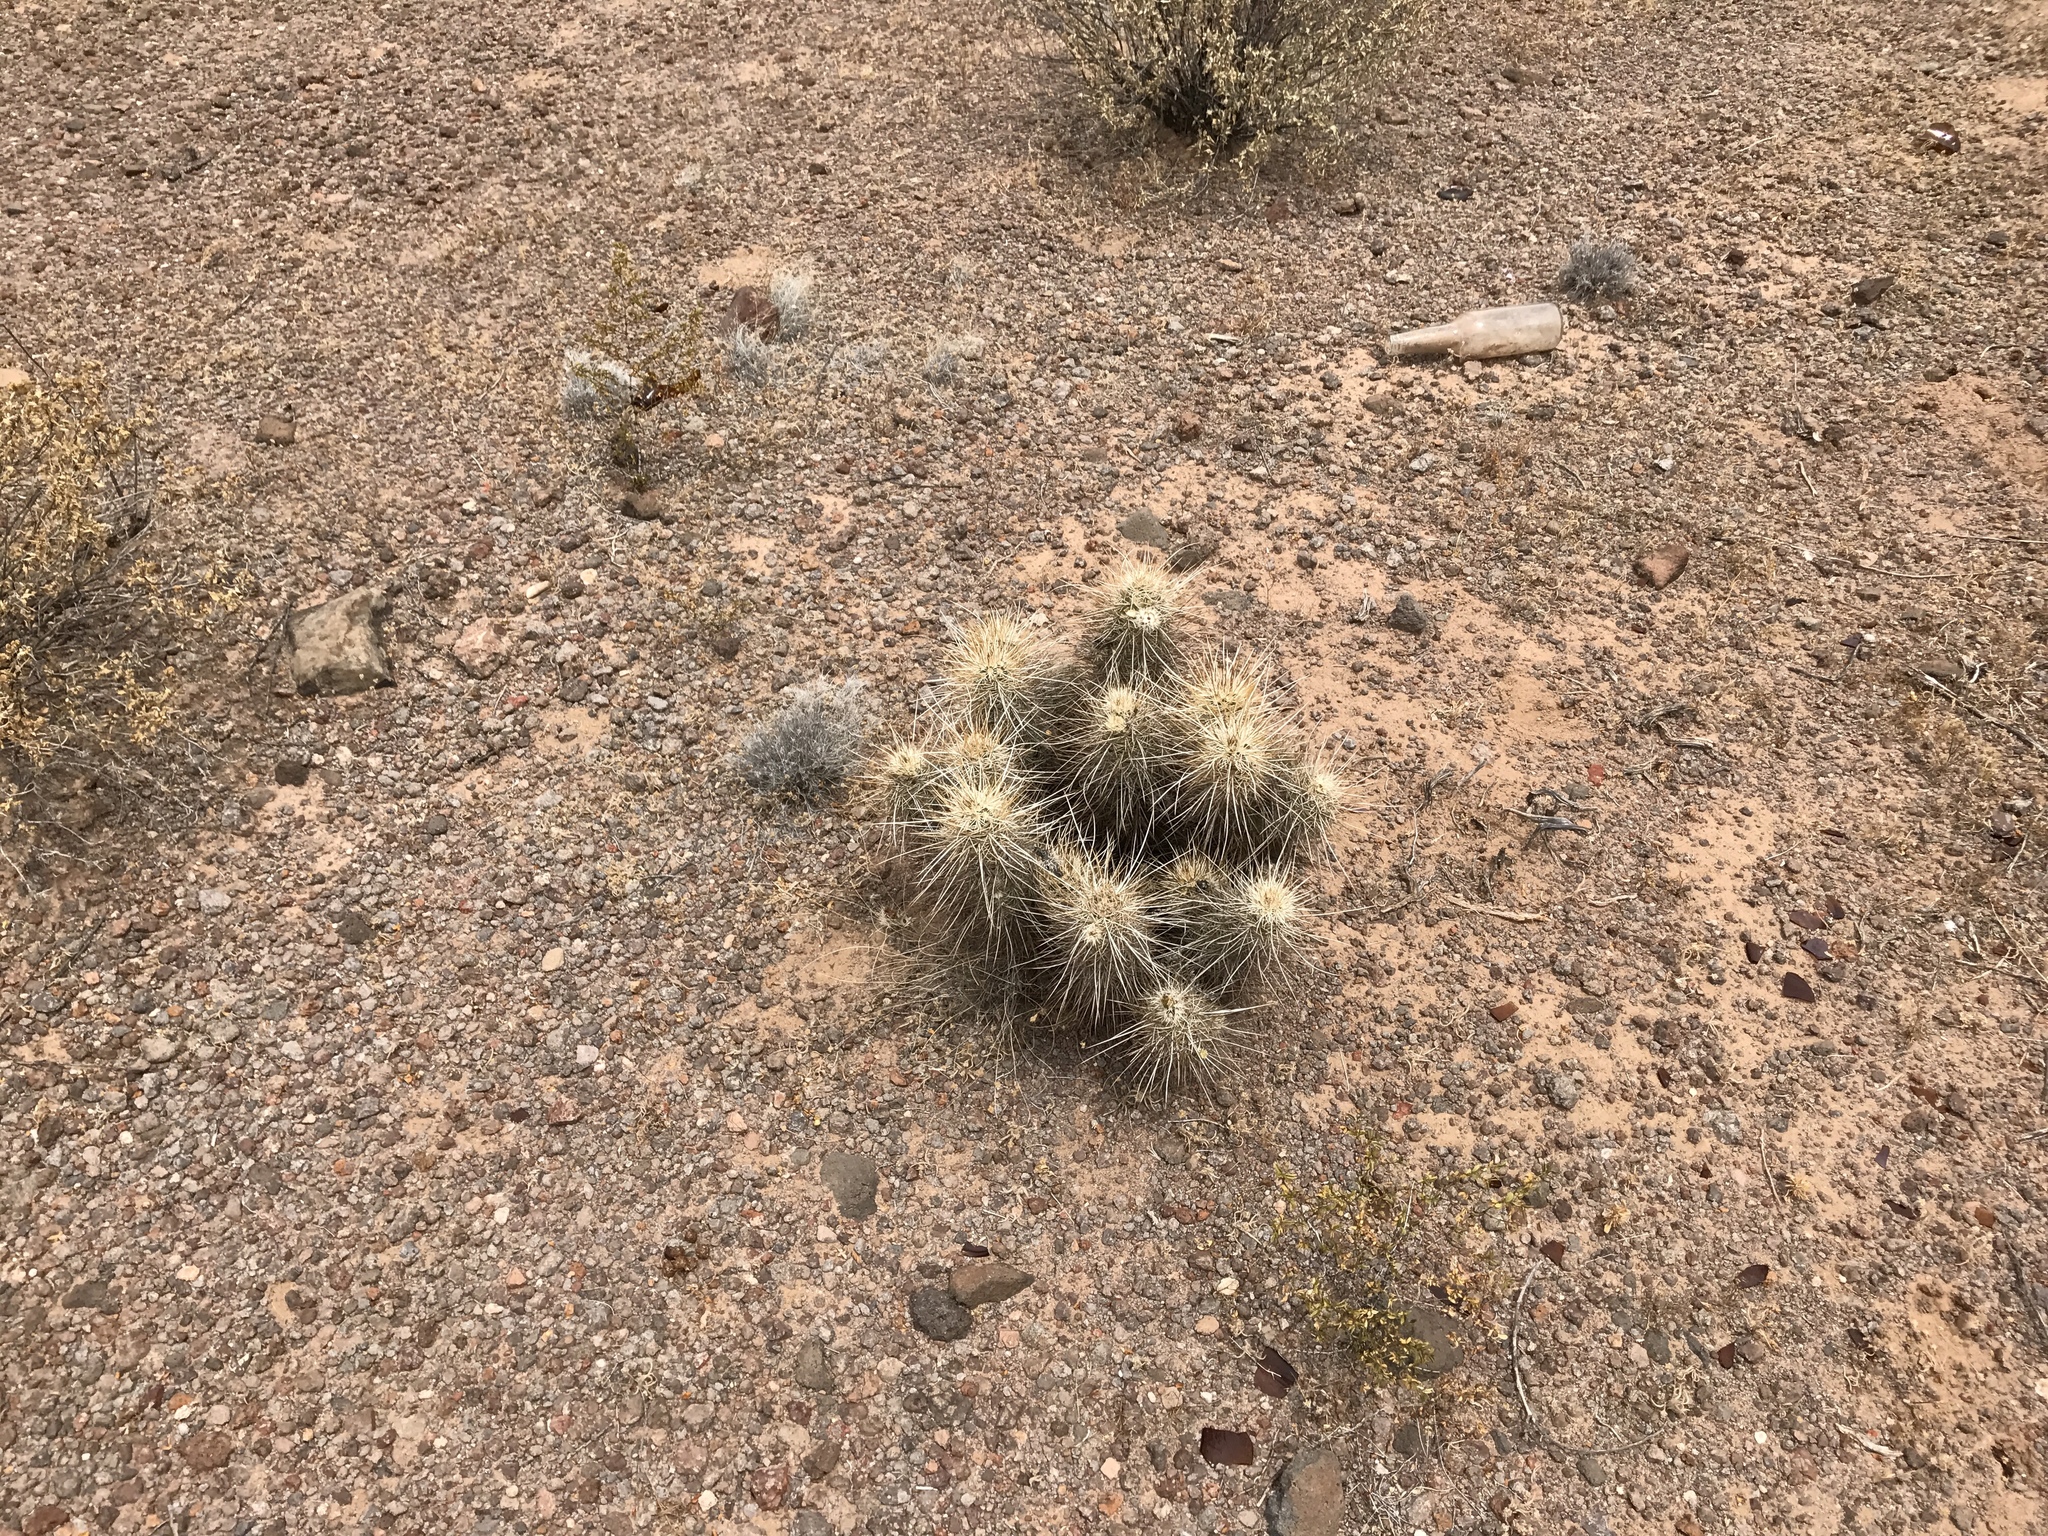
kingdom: Plantae
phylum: Tracheophyta
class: Magnoliopsida
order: Caryophyllales
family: Cactaceae
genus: Echinocereus
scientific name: Echinocereus engelmannii
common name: Engelmann's hedgehog cactus
